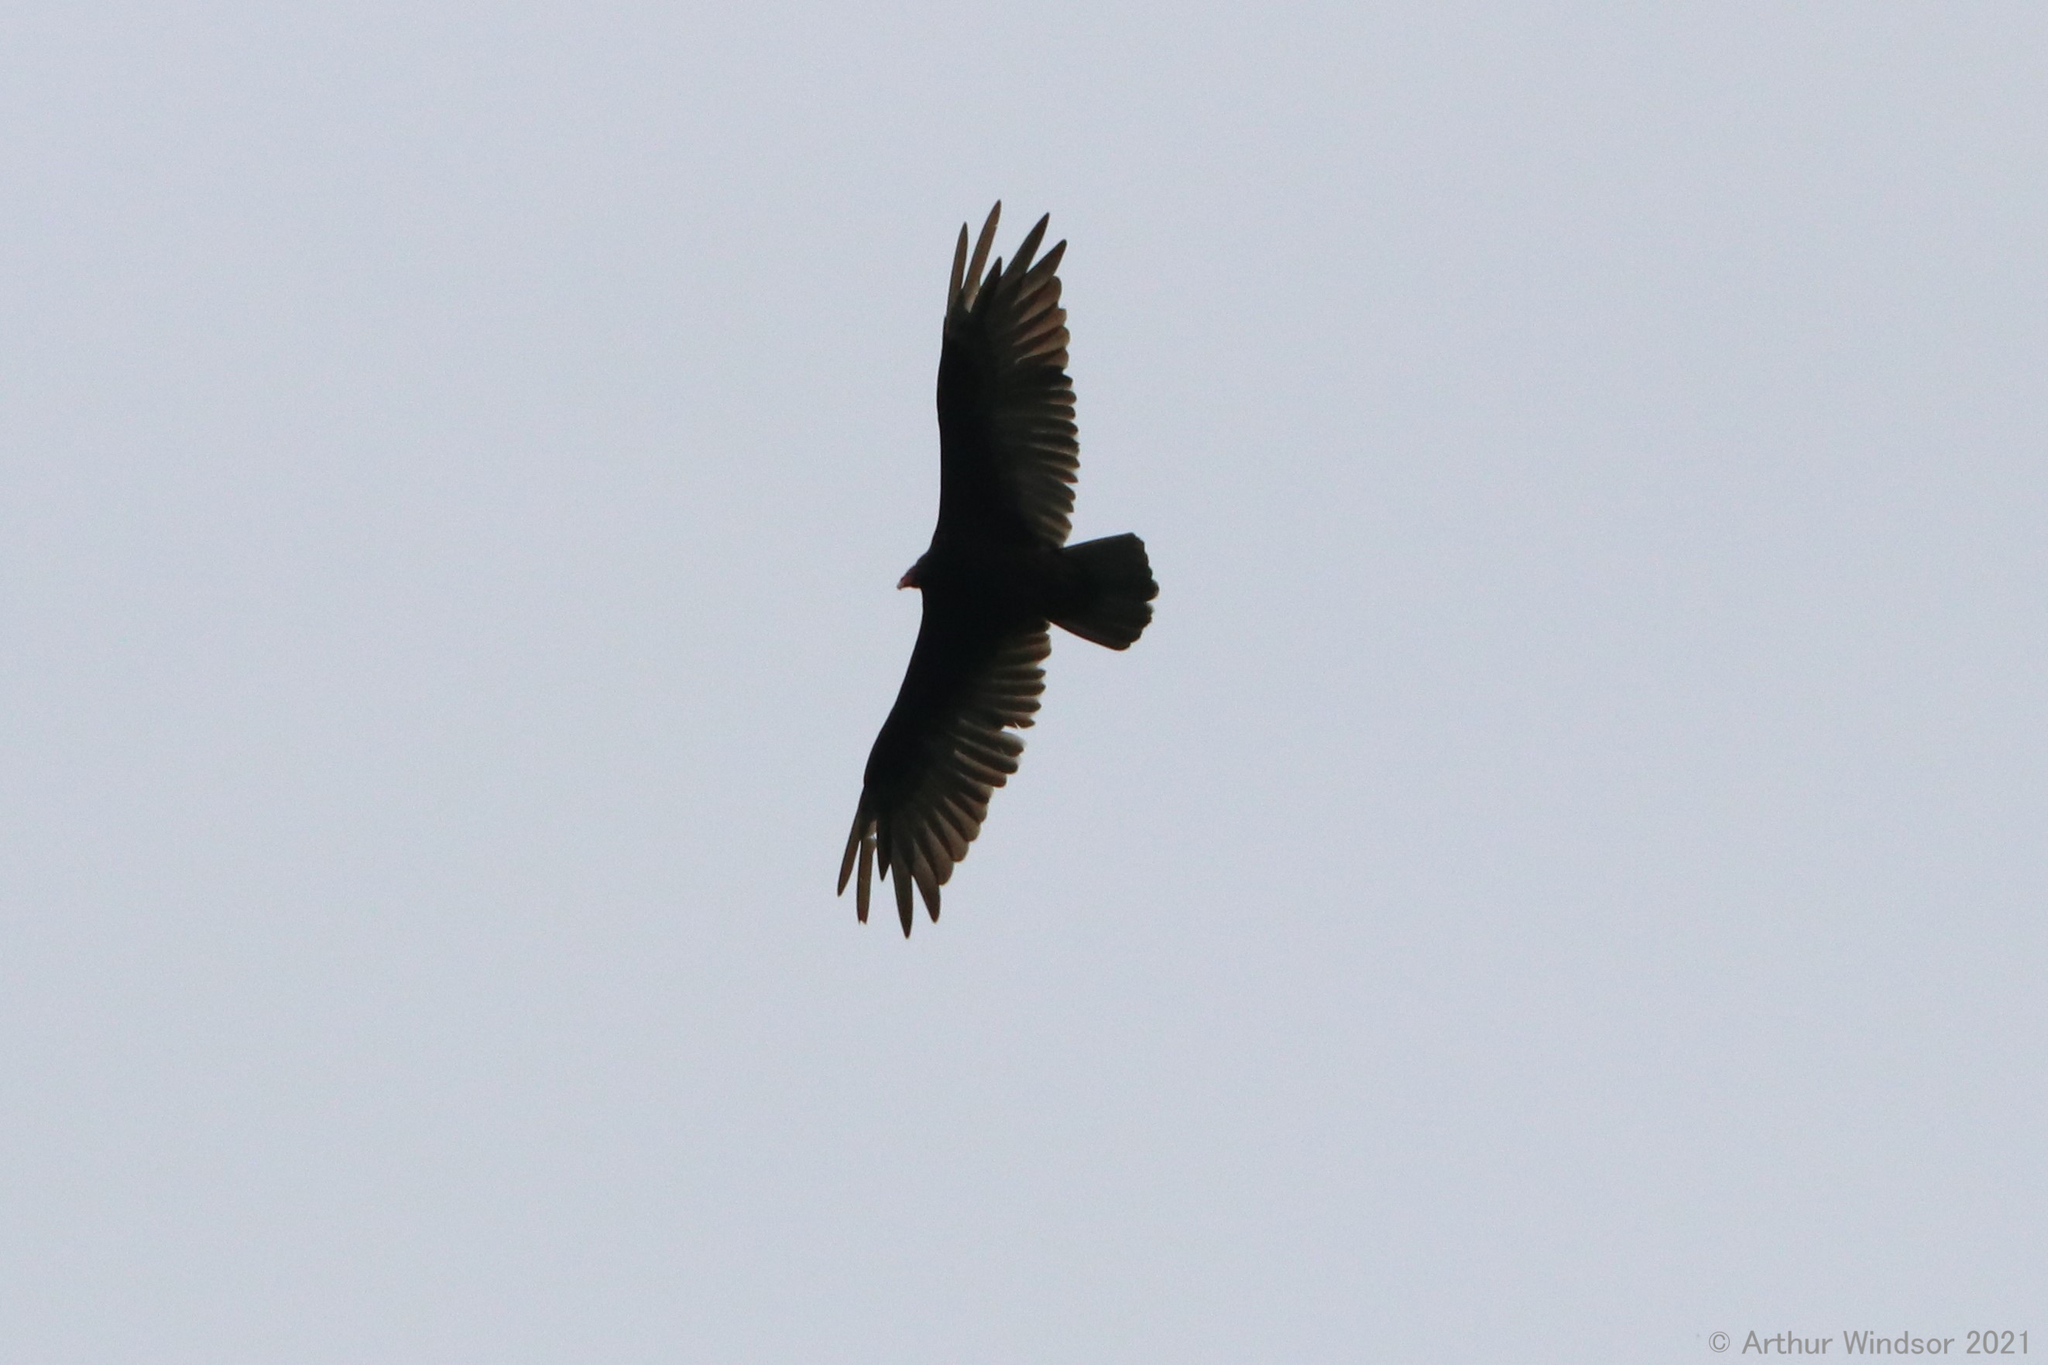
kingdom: Animalia
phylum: Chordata
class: Aves
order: Accipitriformes
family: Cathartidae
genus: Cathartes
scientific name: Cathartes aura
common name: Turkey vulture
